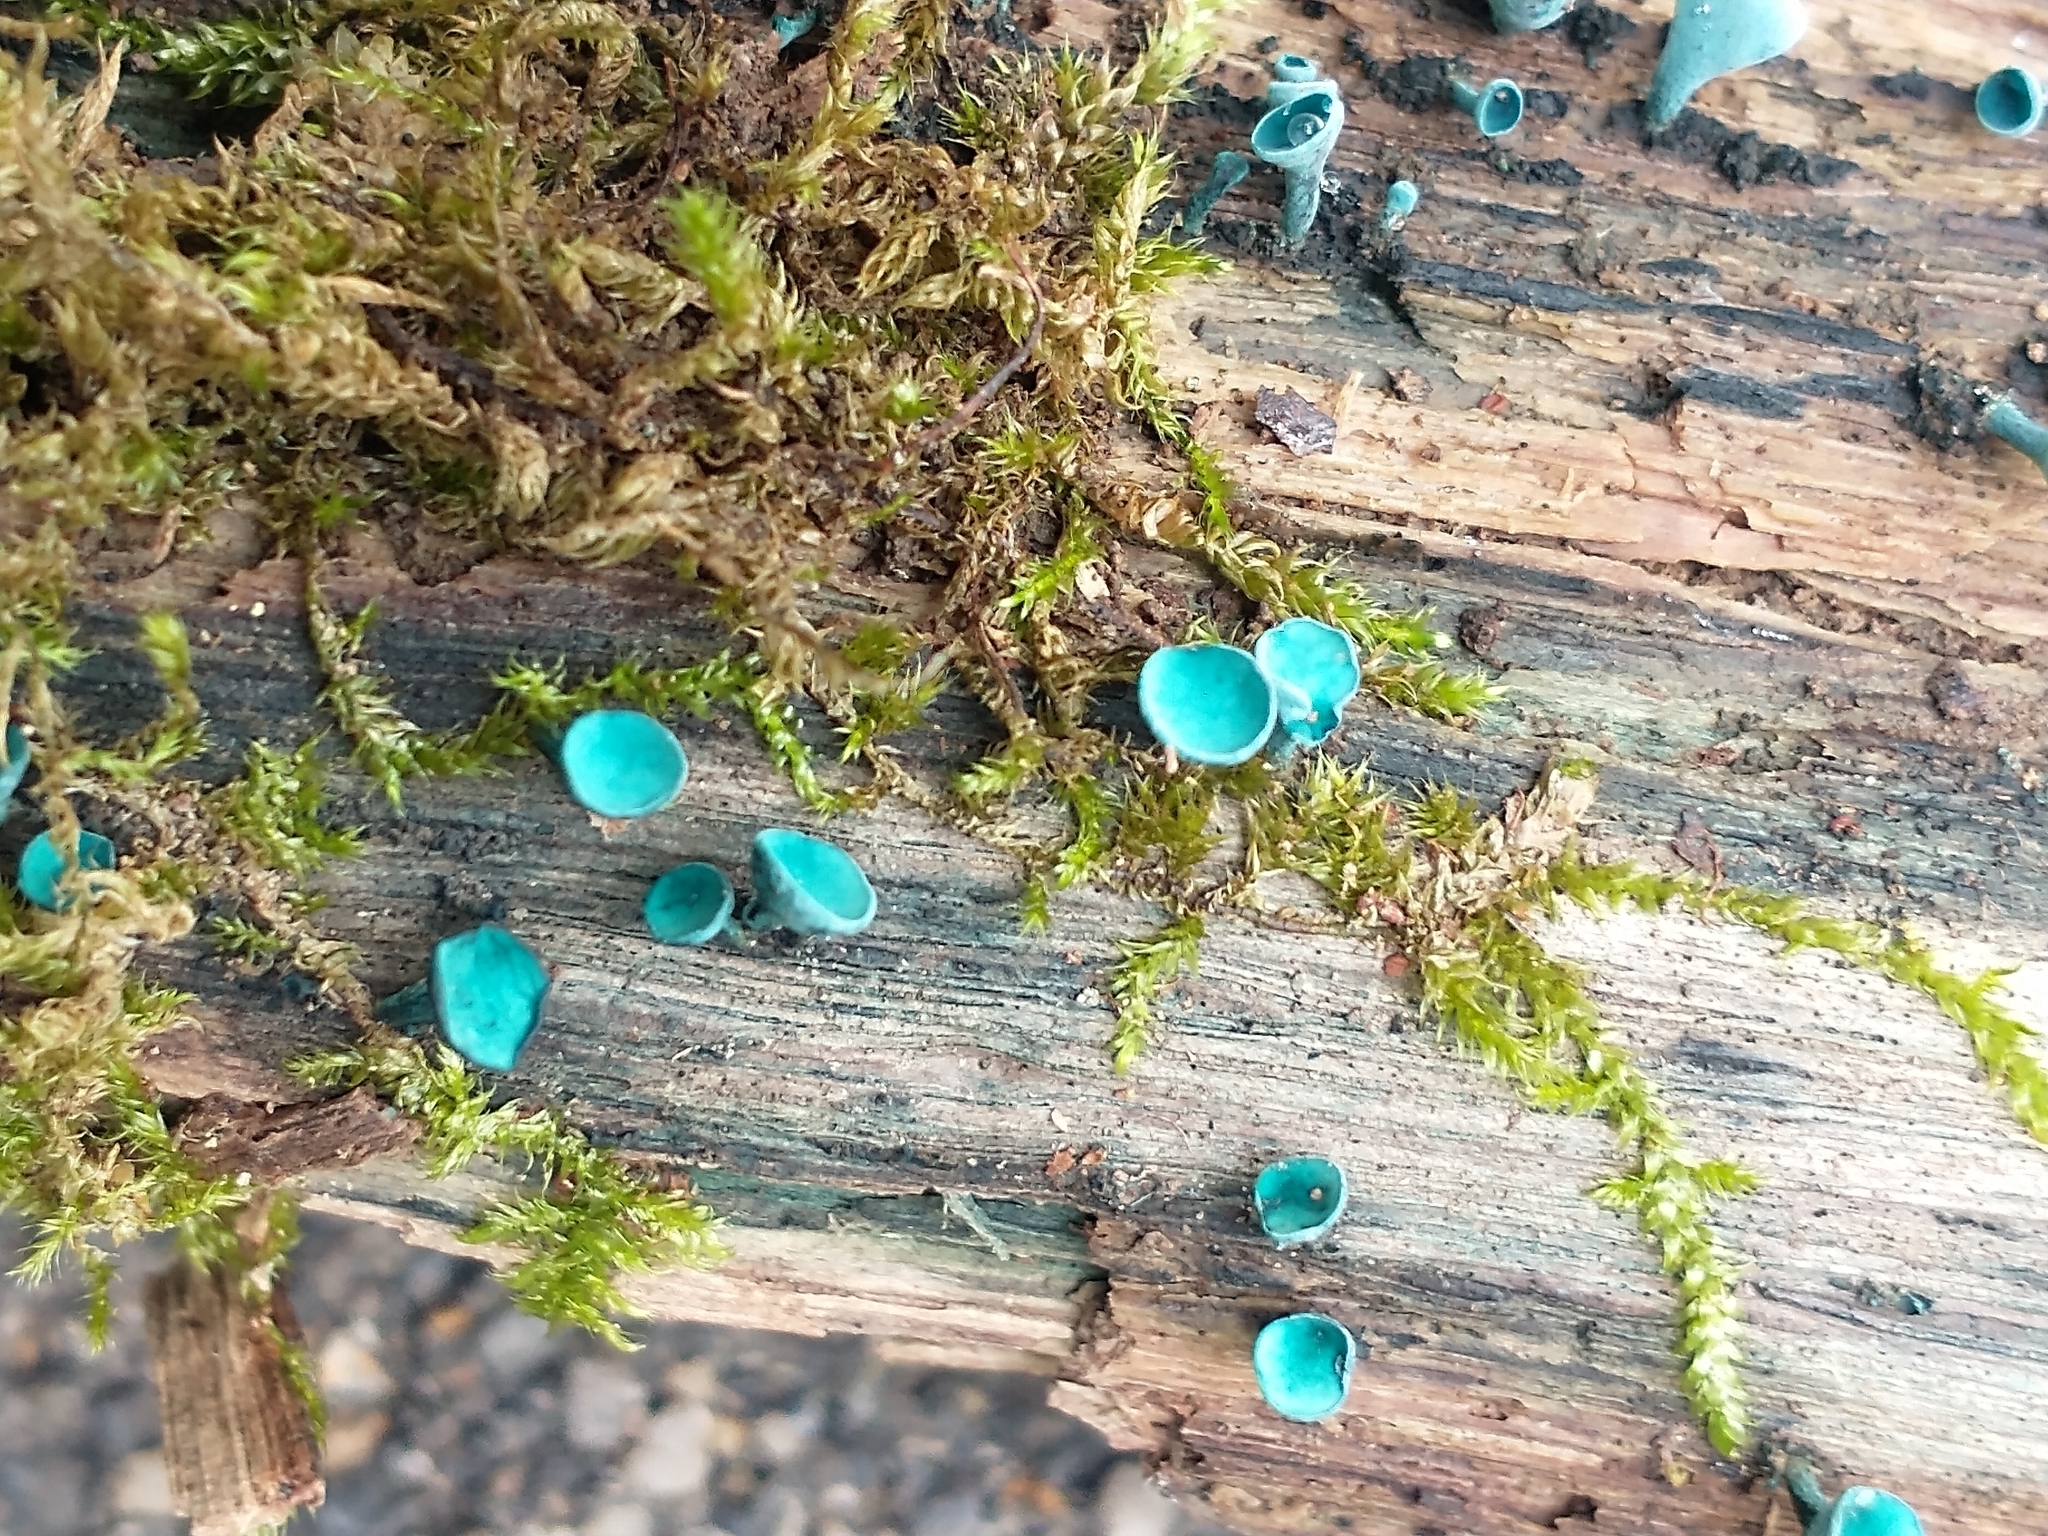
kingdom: Fungi
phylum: Ascomycota
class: Leotiomycetes
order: Helotiales
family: Chlorociboriaceae
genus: Chlorociboria
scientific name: Chlorociboria aeruginascens
